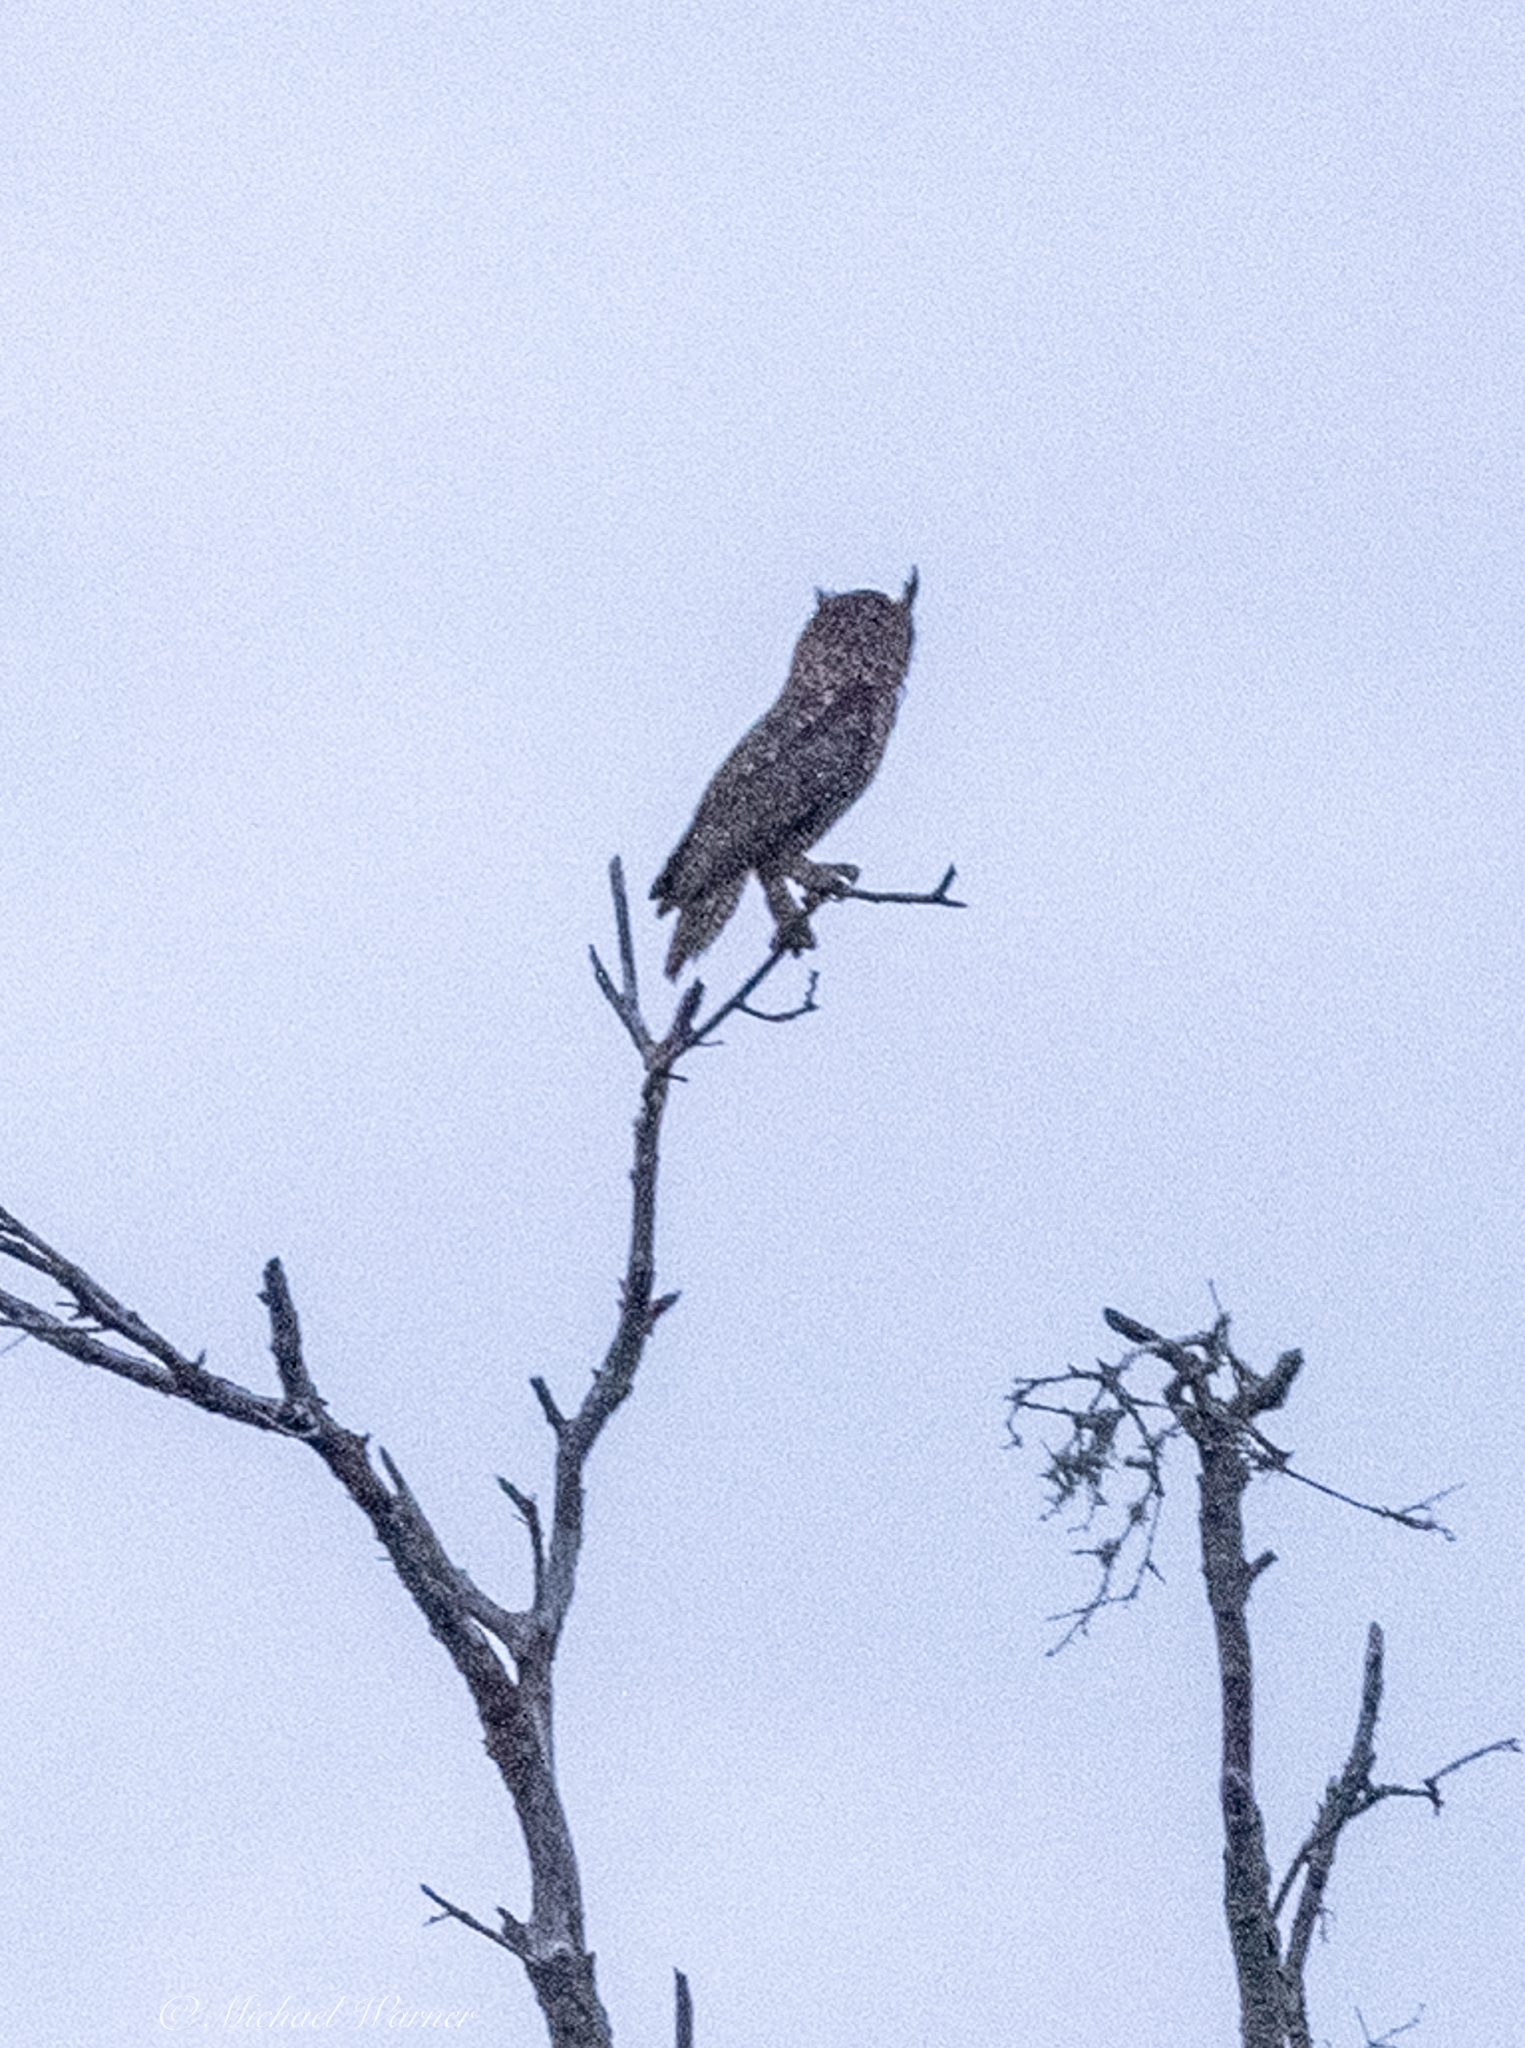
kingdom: Animalia
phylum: Chordata
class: Aves
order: Strigiformes
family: Strigidae
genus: Bubo
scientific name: Bubo virginianus
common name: Great horned owl
